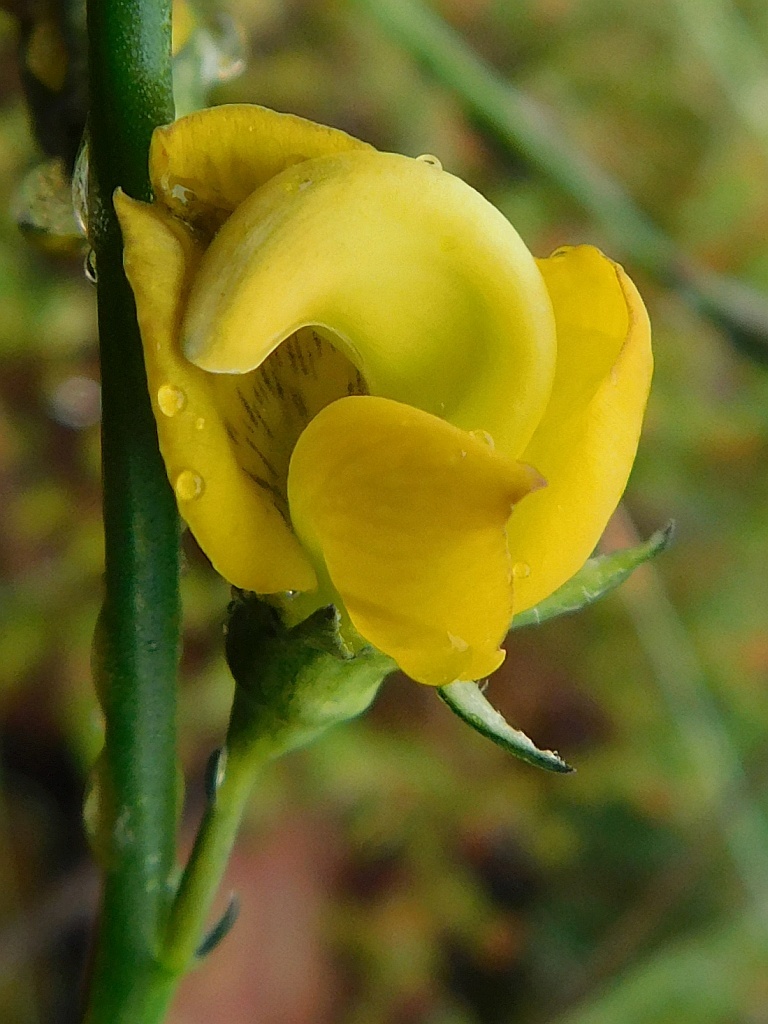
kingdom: Plantae
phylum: Tracheophyta
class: Magnoliopsida
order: Fabales
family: Fabaceae
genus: Lebeckia
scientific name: Lebeckia pauciflora
